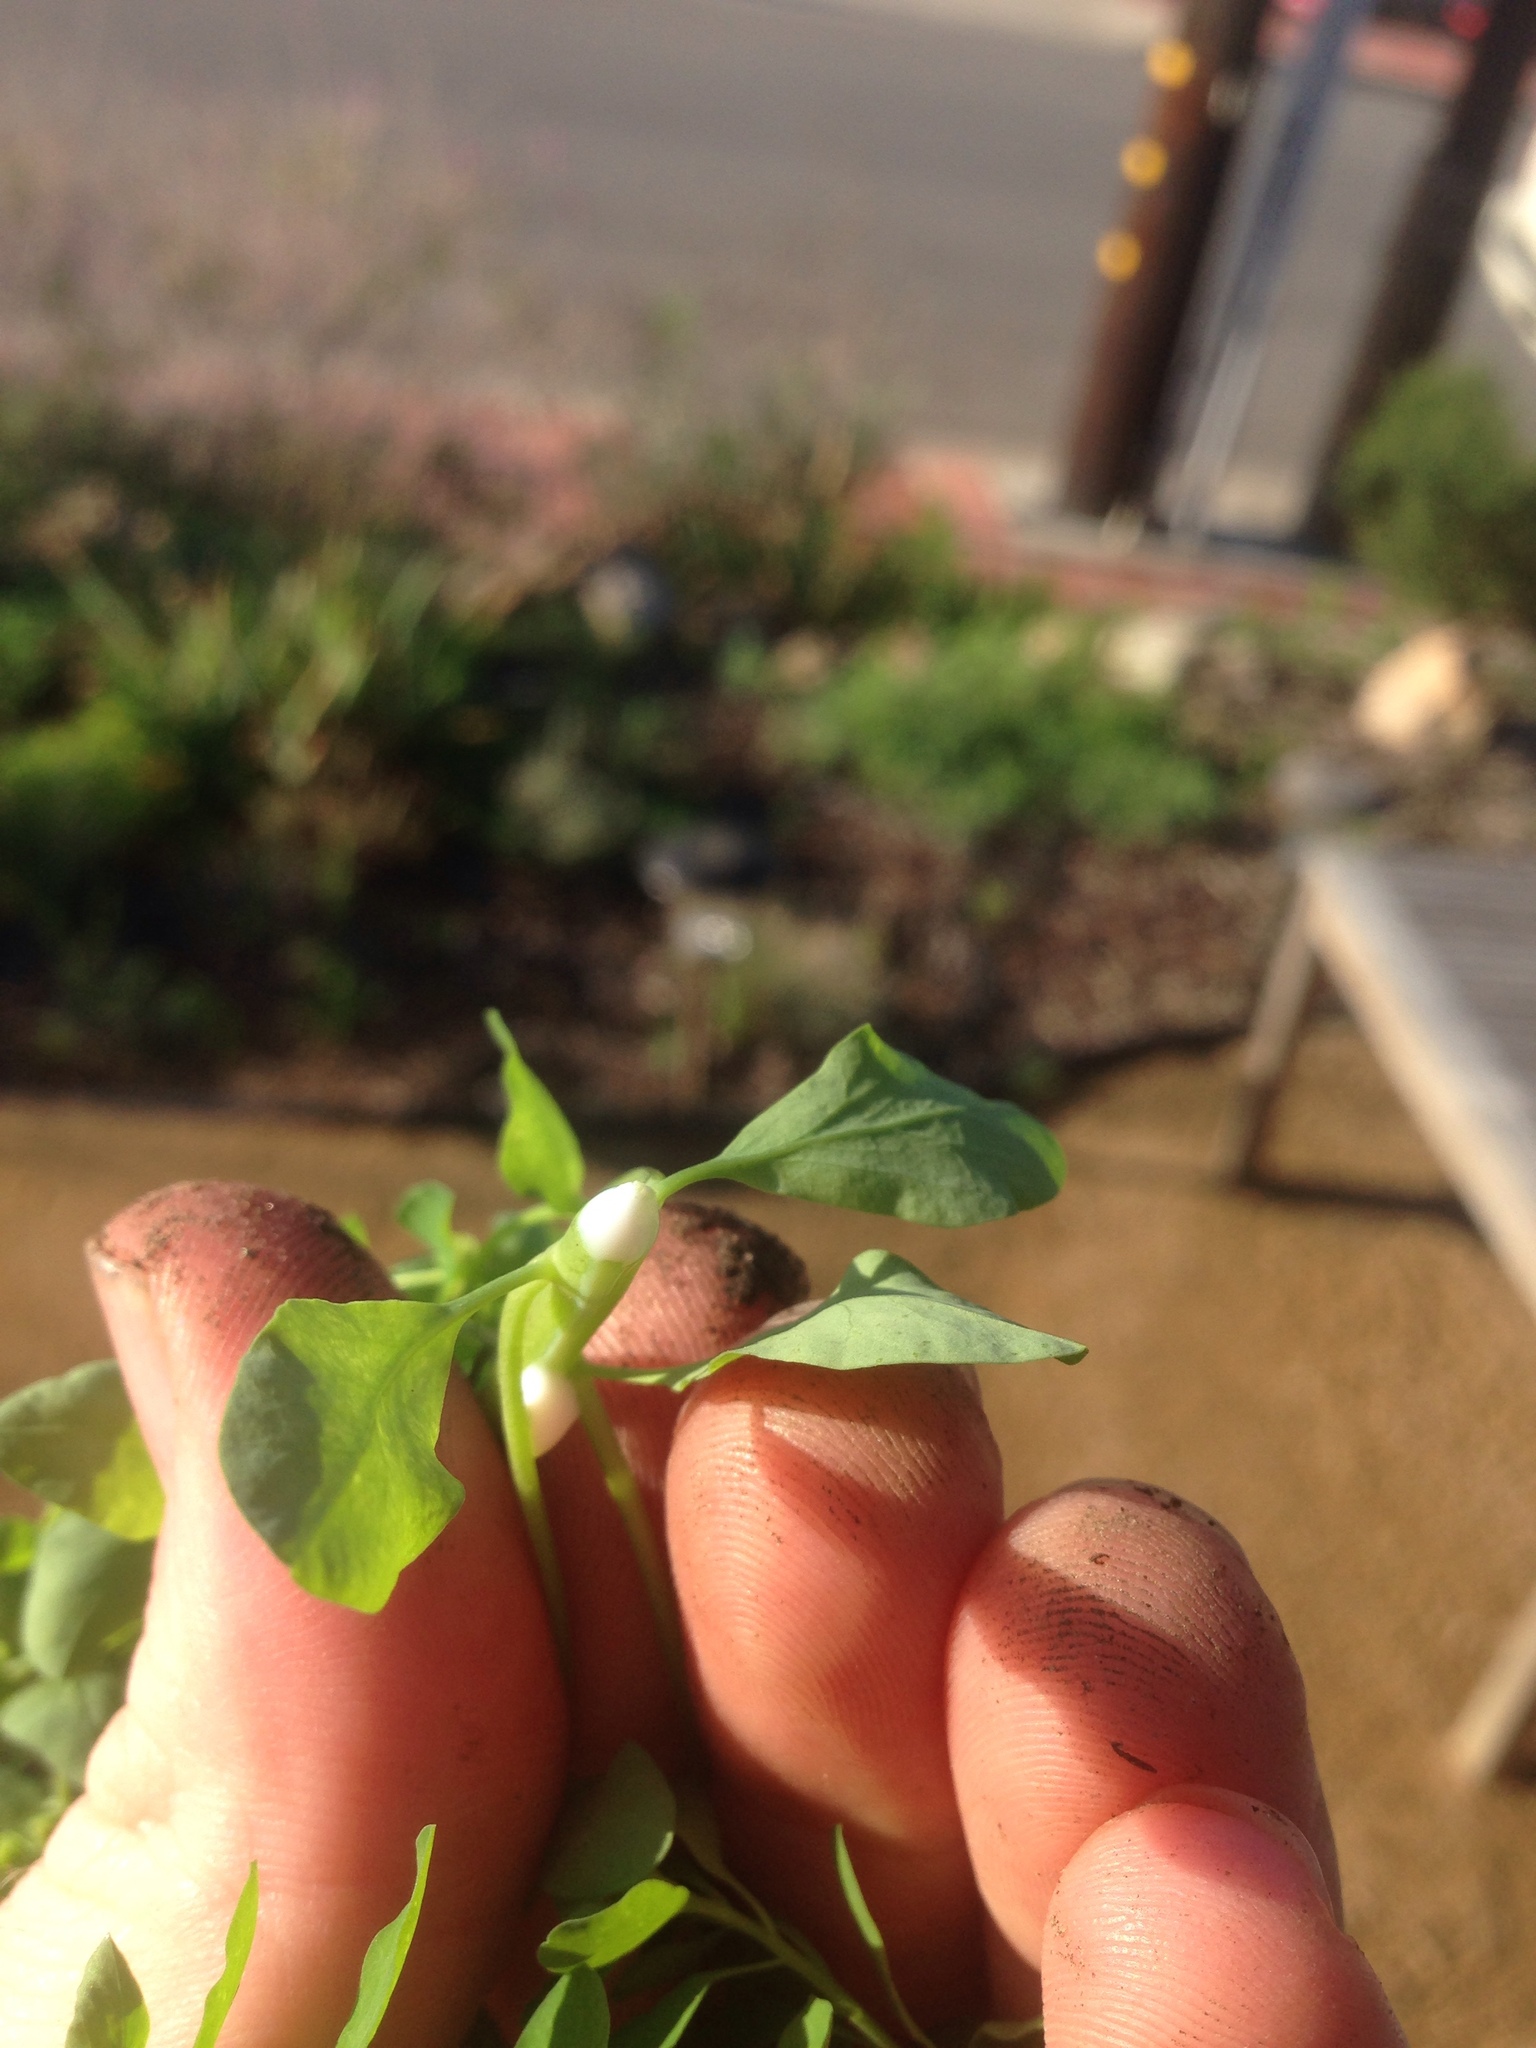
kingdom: Plantae
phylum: Tracheophyta
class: Magnoliopsida
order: Malpighiales
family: Euphorbiaceae
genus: Euphorbia
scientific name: Euphorbia peplus
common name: Petty spurge
